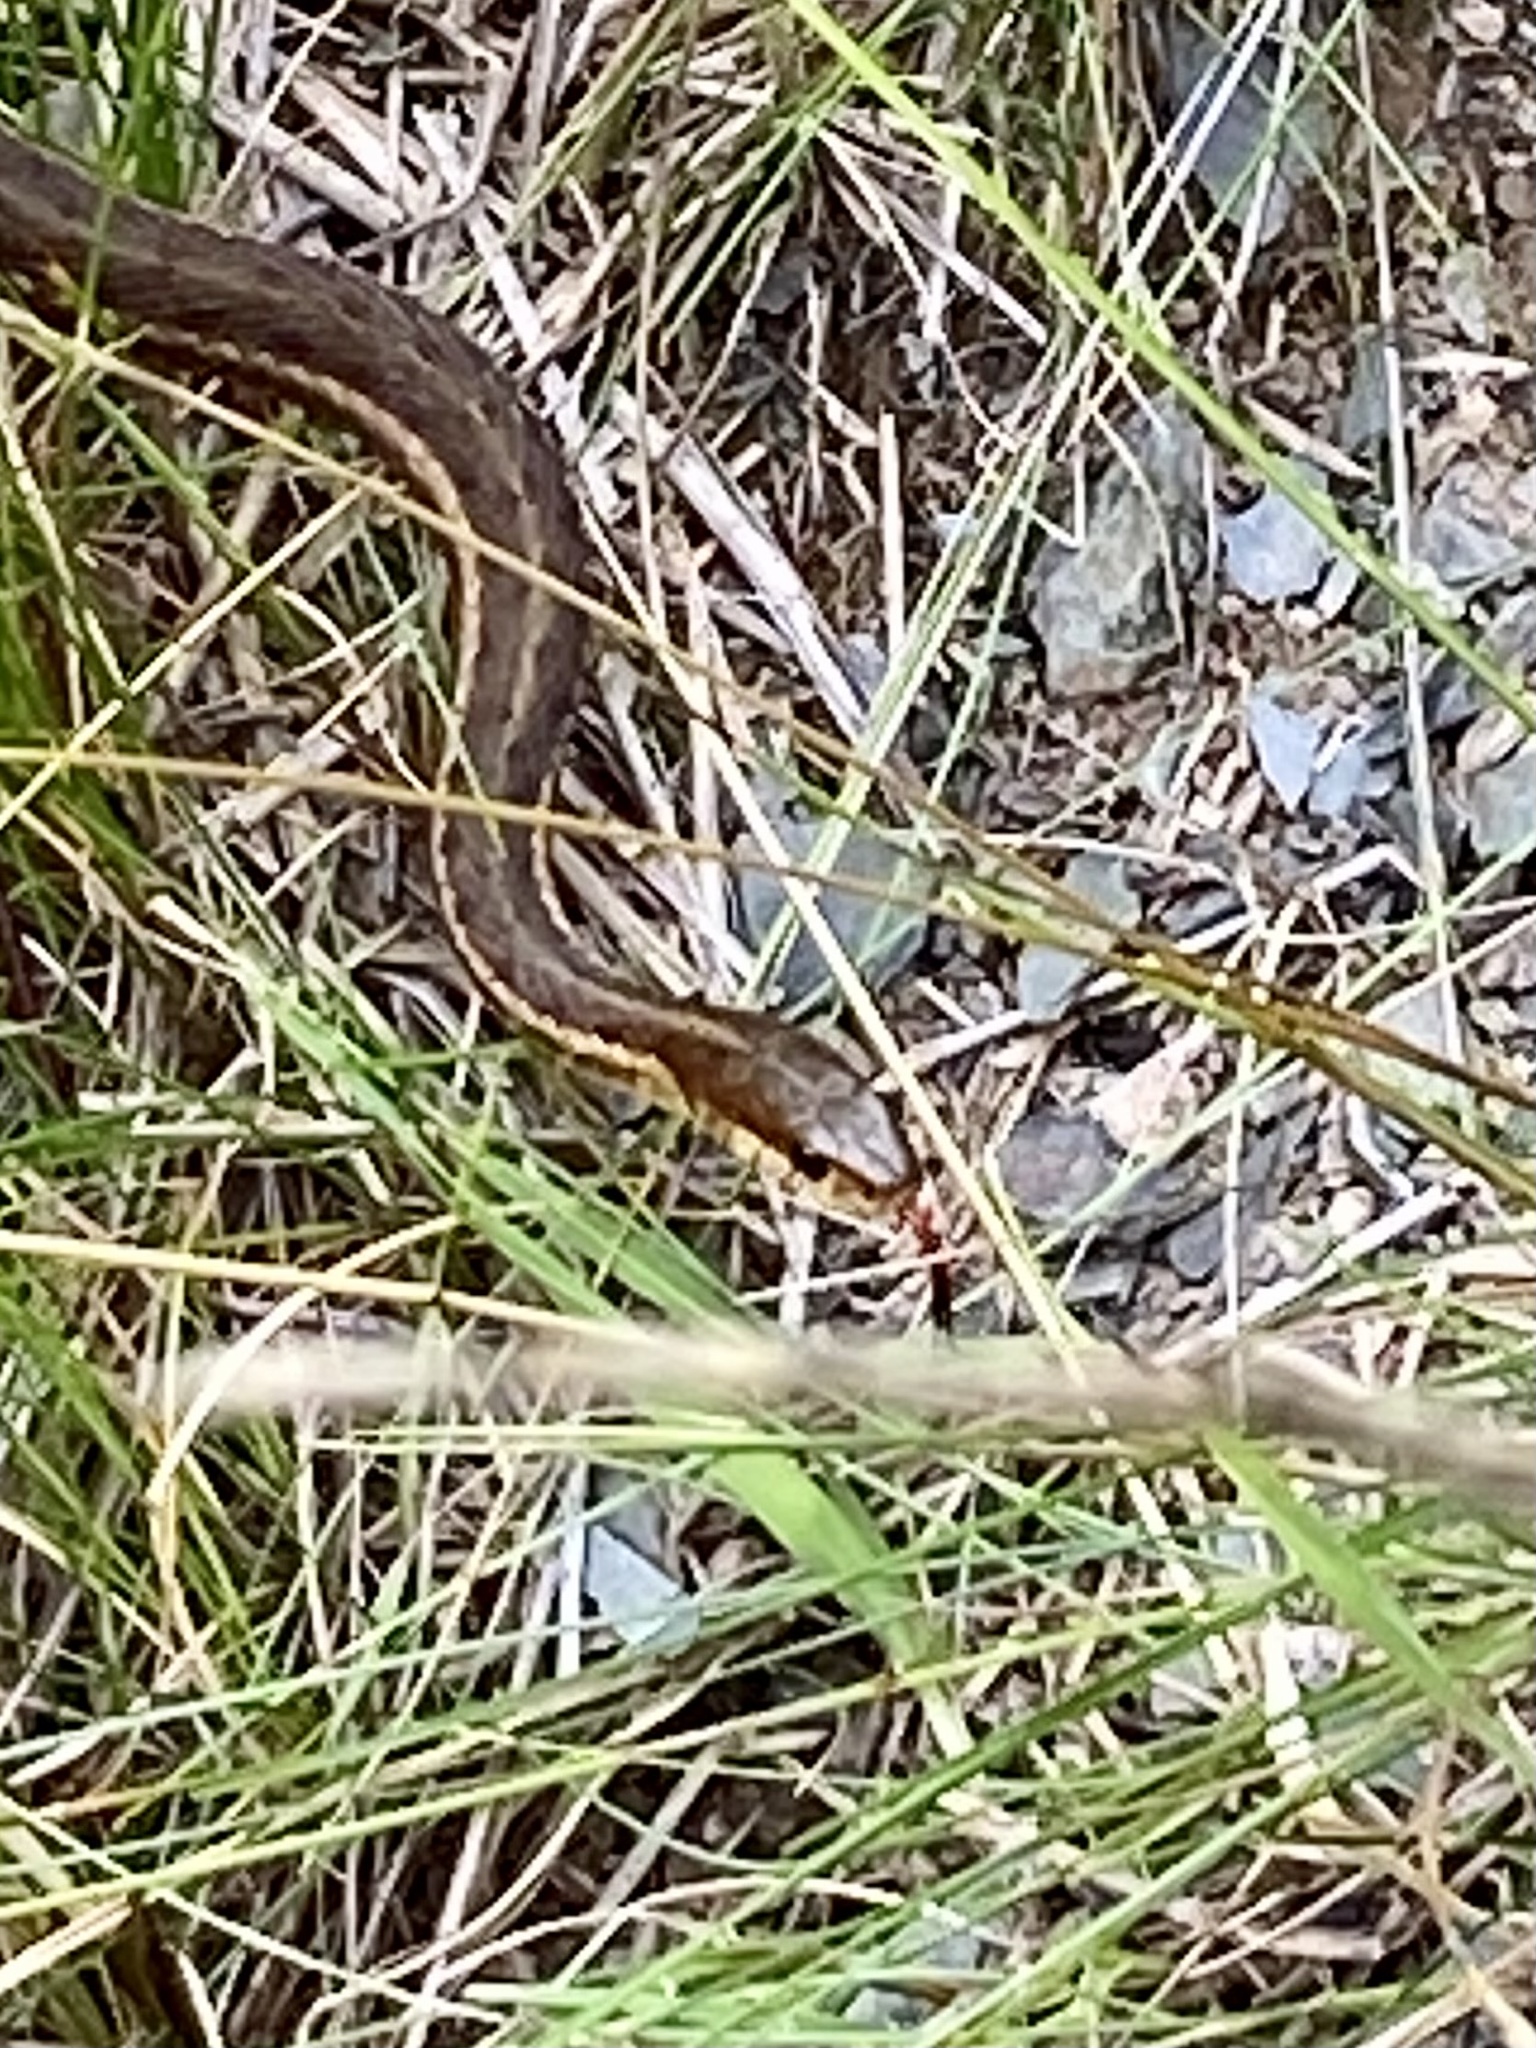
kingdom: Animalia
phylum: Chordata
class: Squamata
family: Colubridae
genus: Thamnophis
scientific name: Thamnophis sirtalis
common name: Common garter snake
